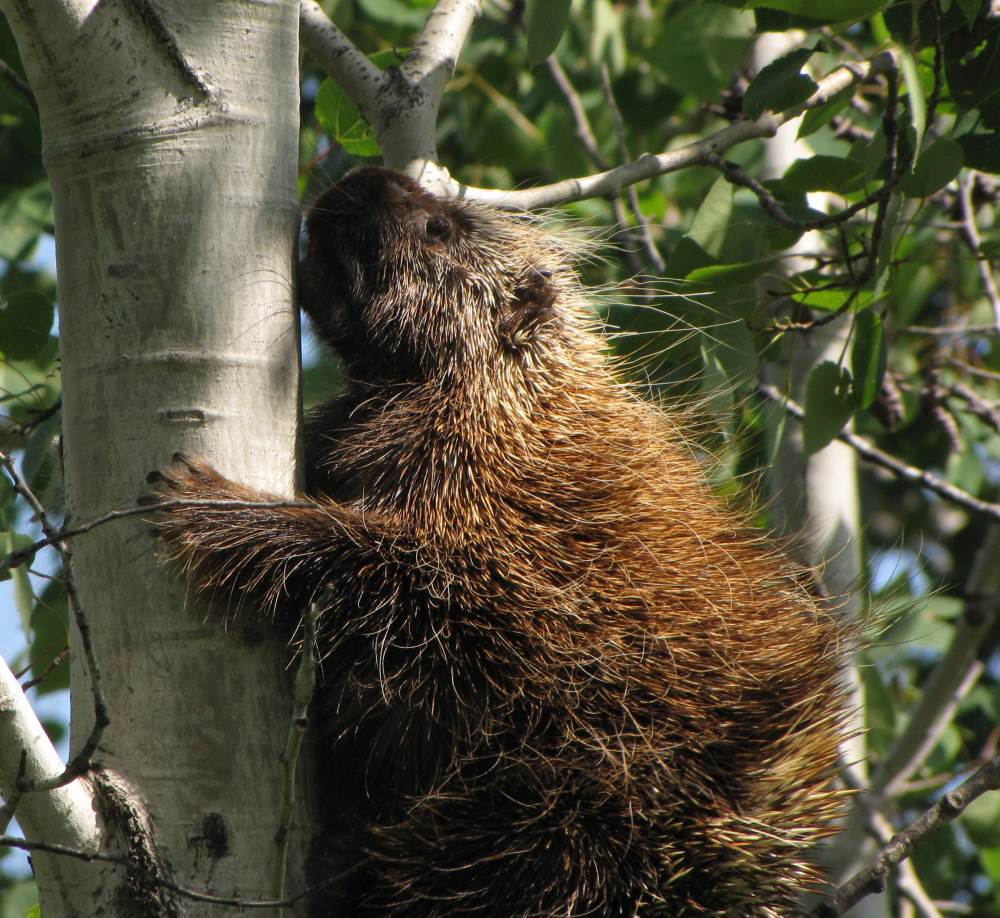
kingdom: Animalia
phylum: Chordata
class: Mammalia
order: Rodentia
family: Erethizontidae
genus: Erethizon
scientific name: Erethizon dorsatus
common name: North american porcupine
